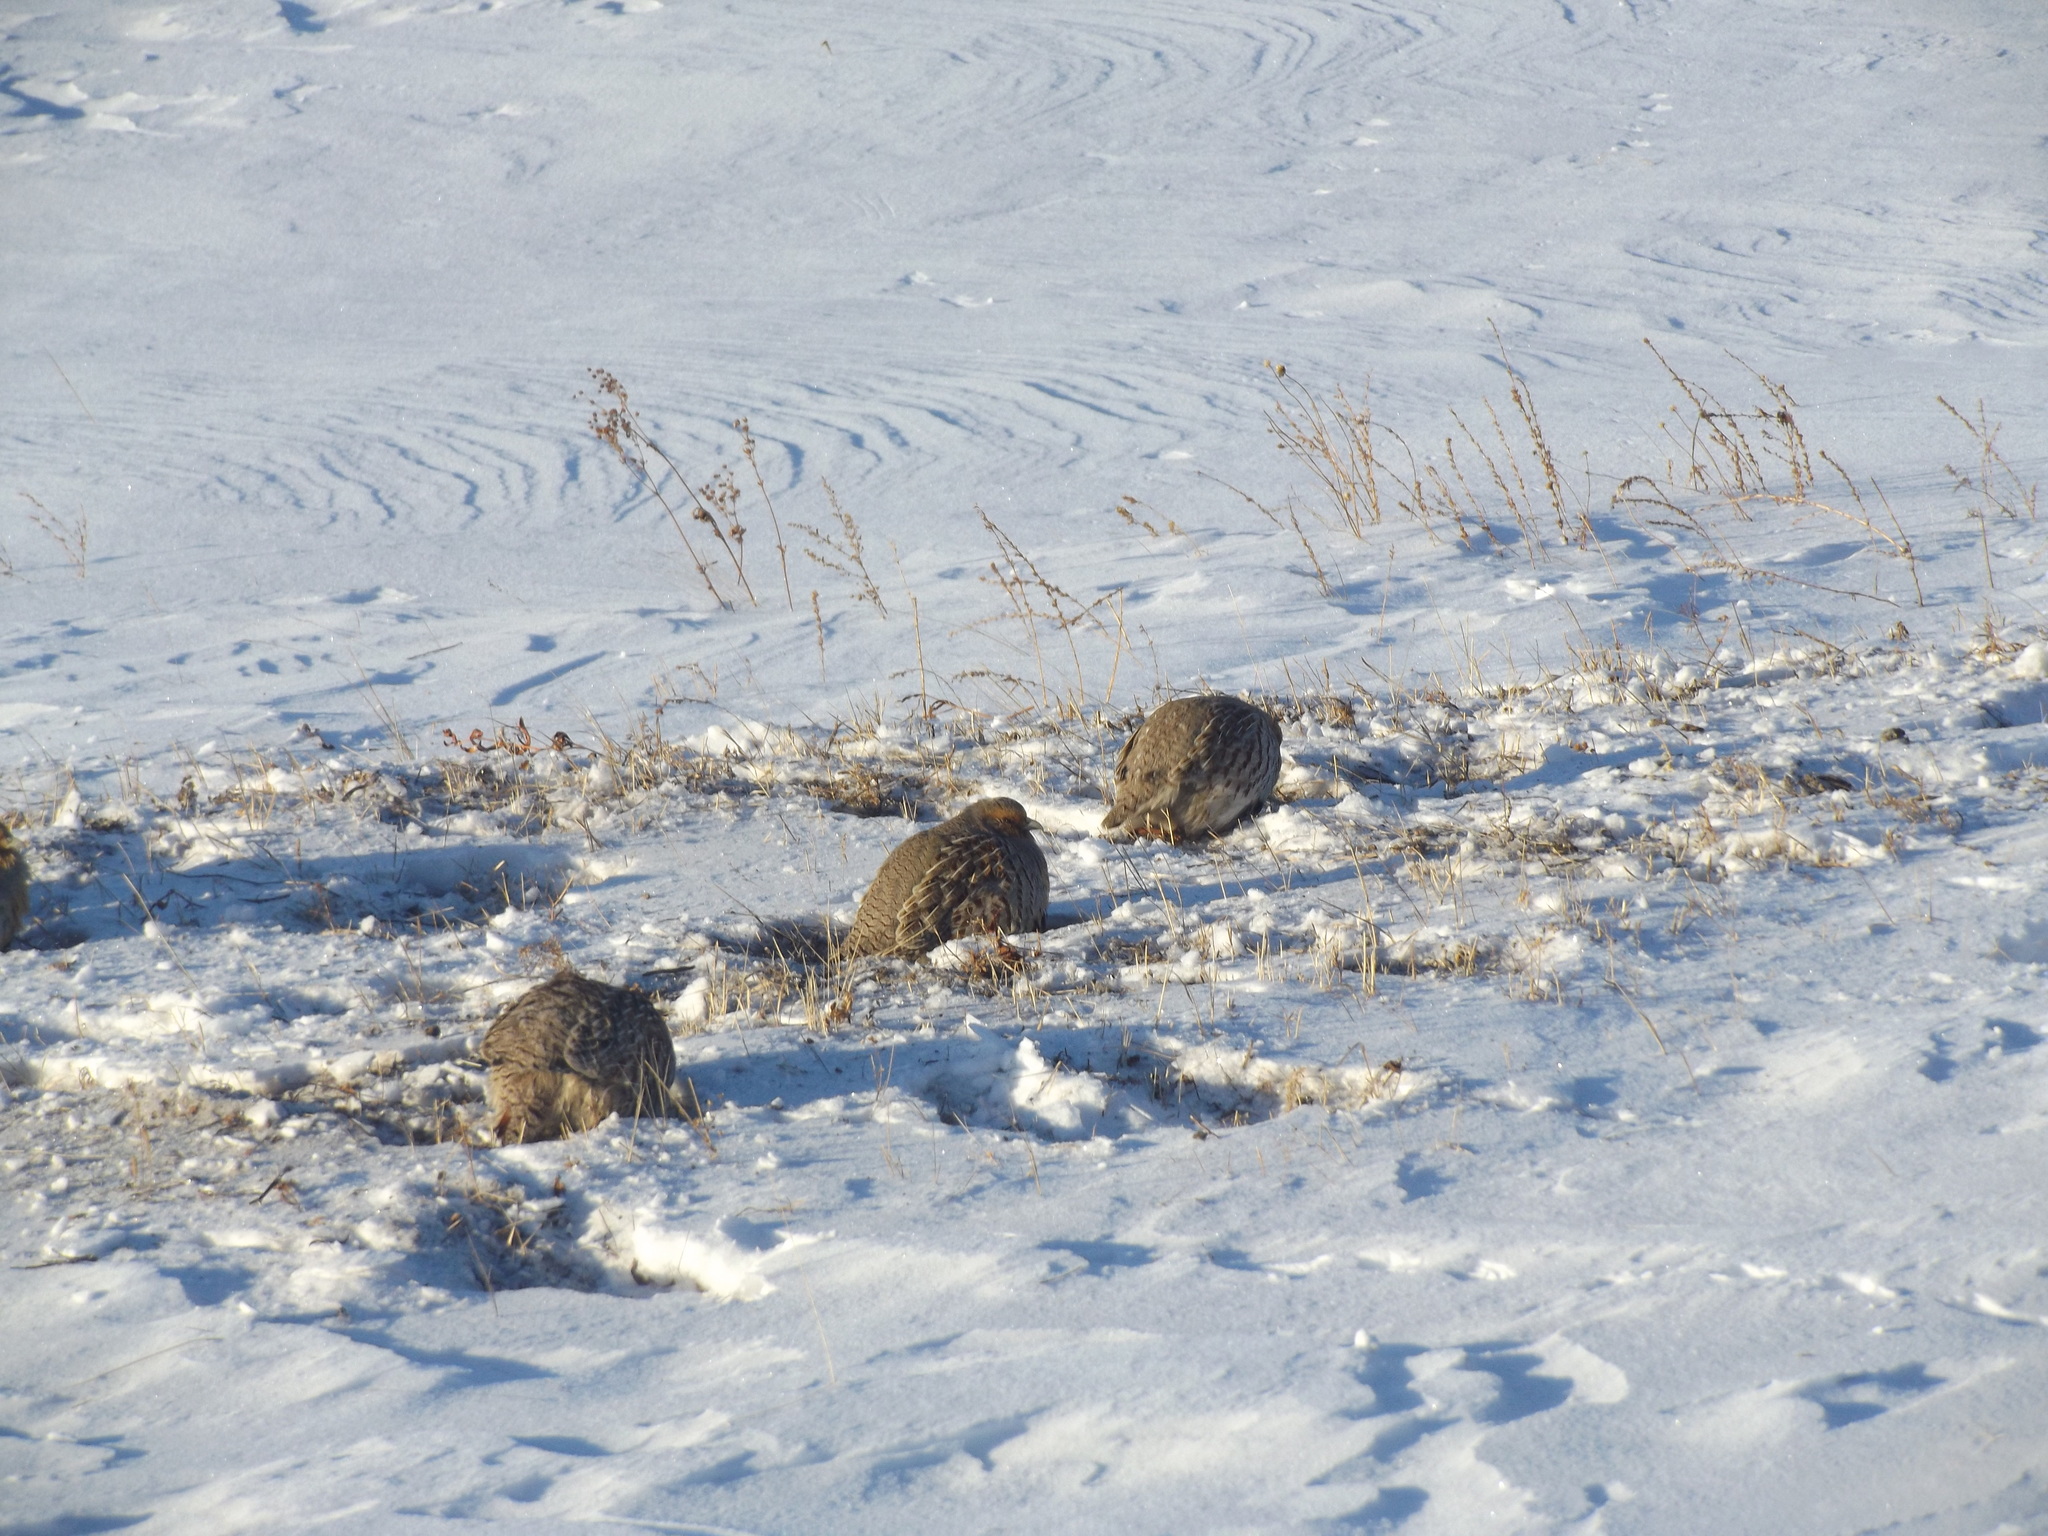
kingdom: Animalia
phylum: Chordata
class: Aves
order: Galliformes
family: Phasianidae
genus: Perdix
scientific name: Perdix dauurica
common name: Daurian partridge
